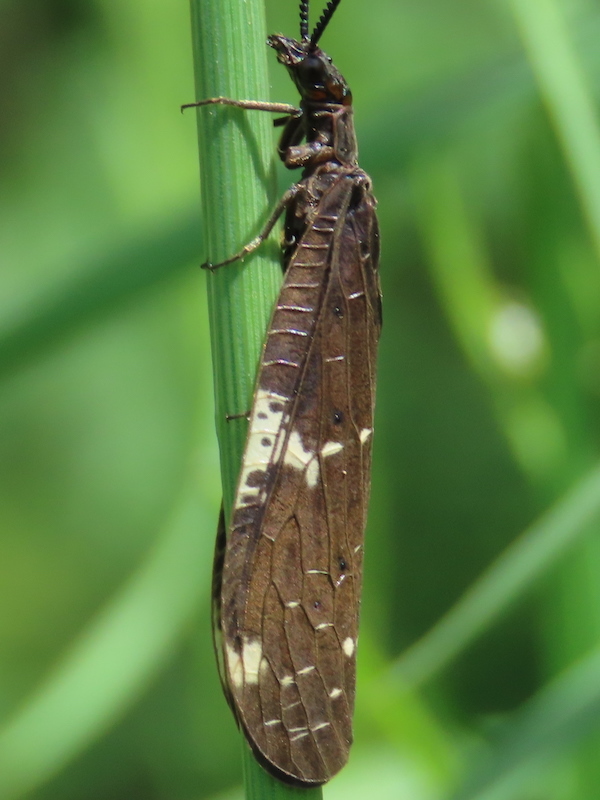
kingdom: Animalia
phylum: Arthropoda
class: Insecta
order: Megaloptera
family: Corydalidae
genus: Nigronia
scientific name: Nigronia serricornis
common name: Serrate dark fishfly
